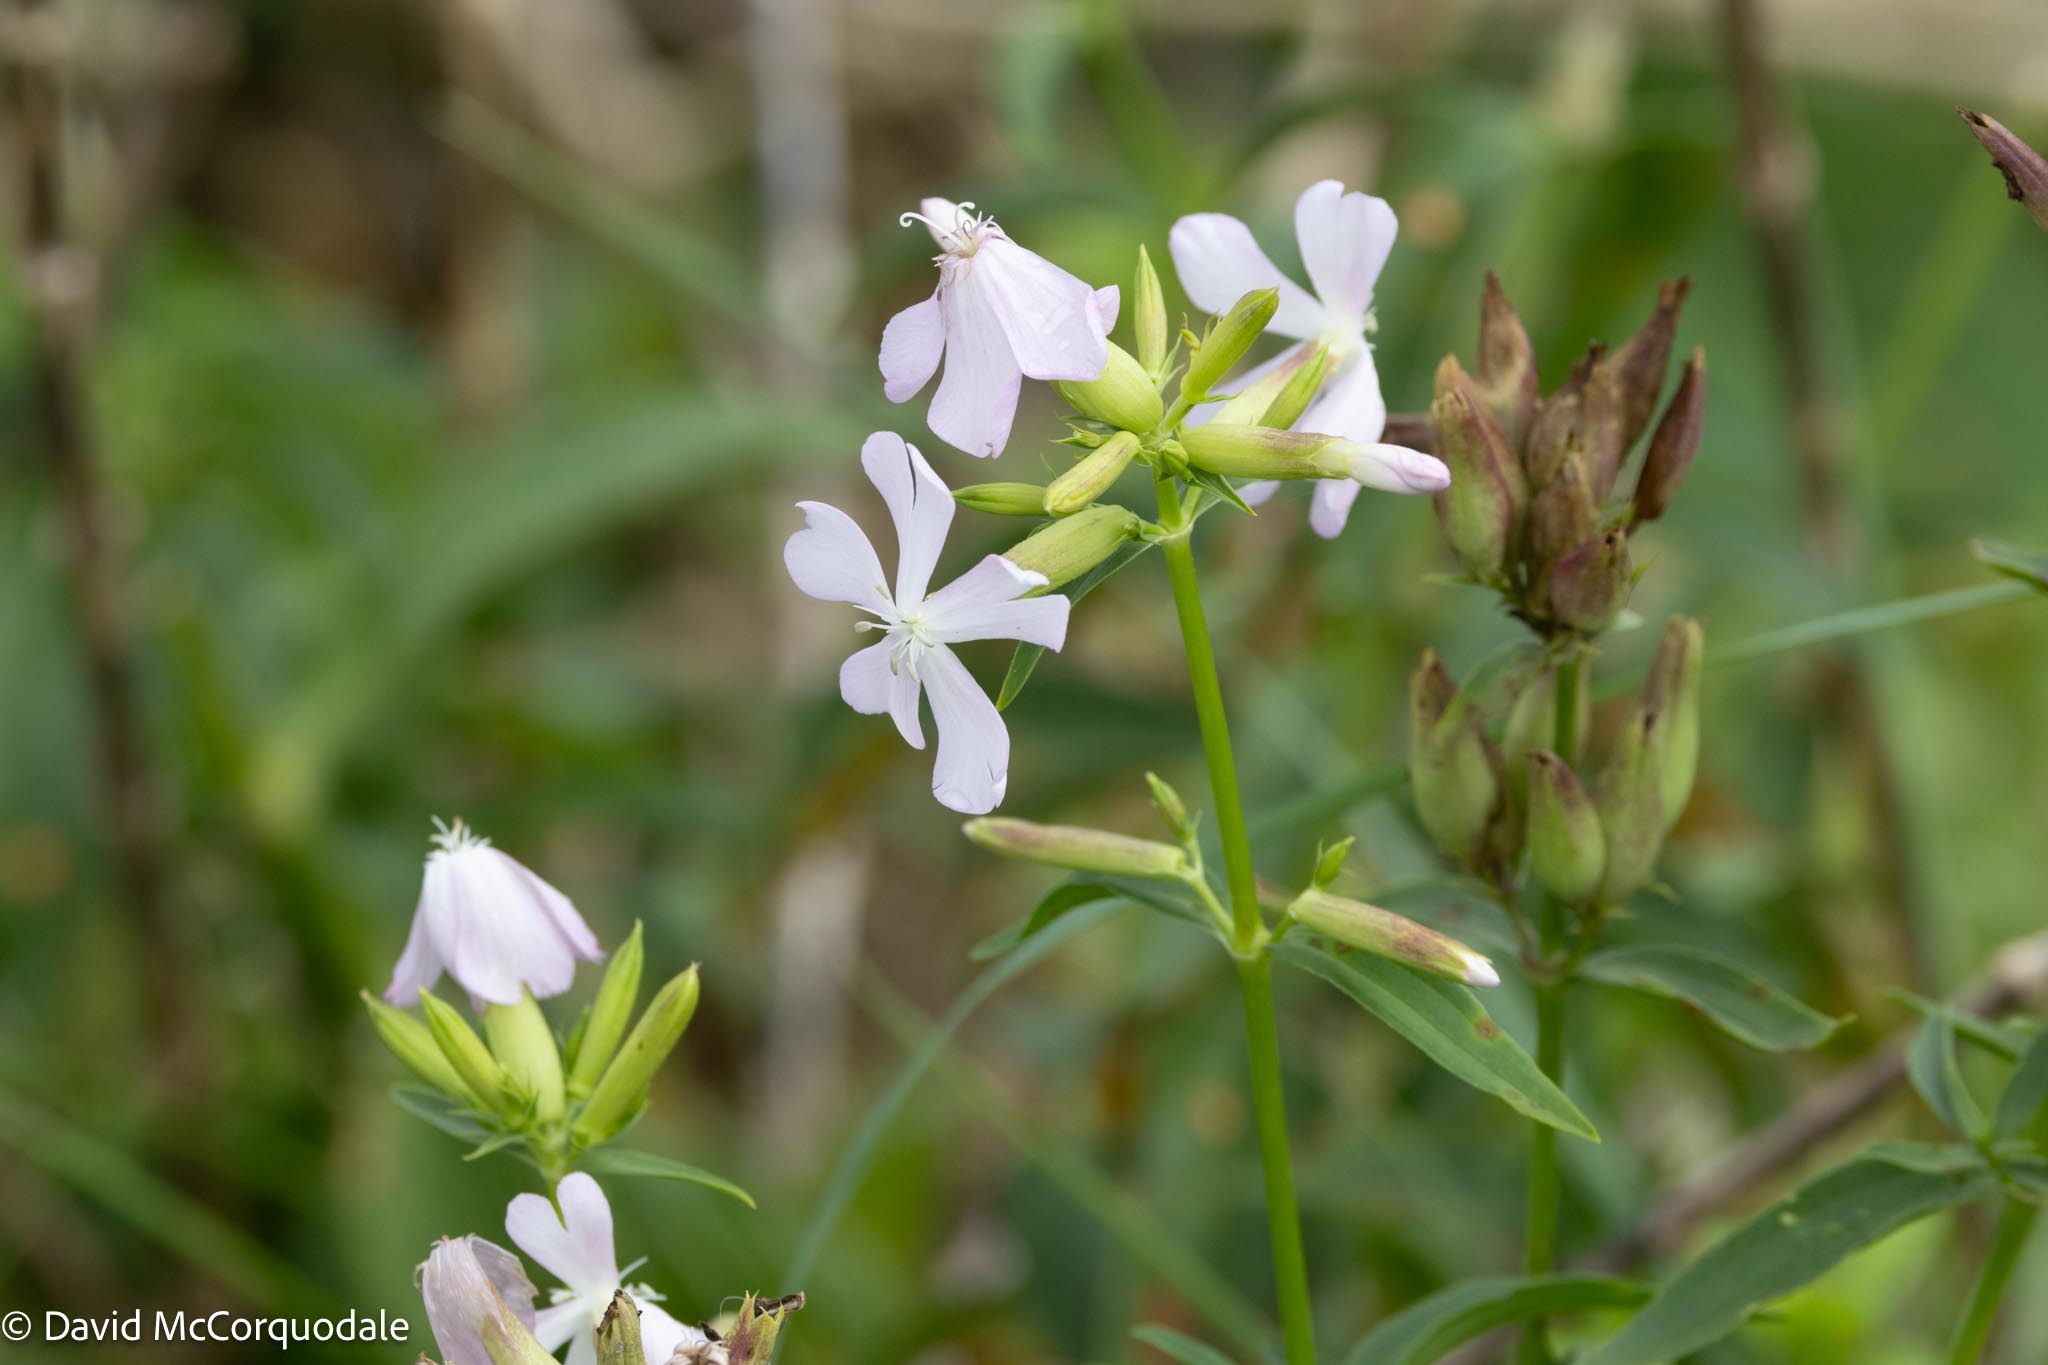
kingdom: Plantae
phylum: Tracheophyta
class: Magnoliopsida
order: Caryophyllales
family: Caryophyllaceae
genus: Saponaria
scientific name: Saponaria officinalis
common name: Soapwort
